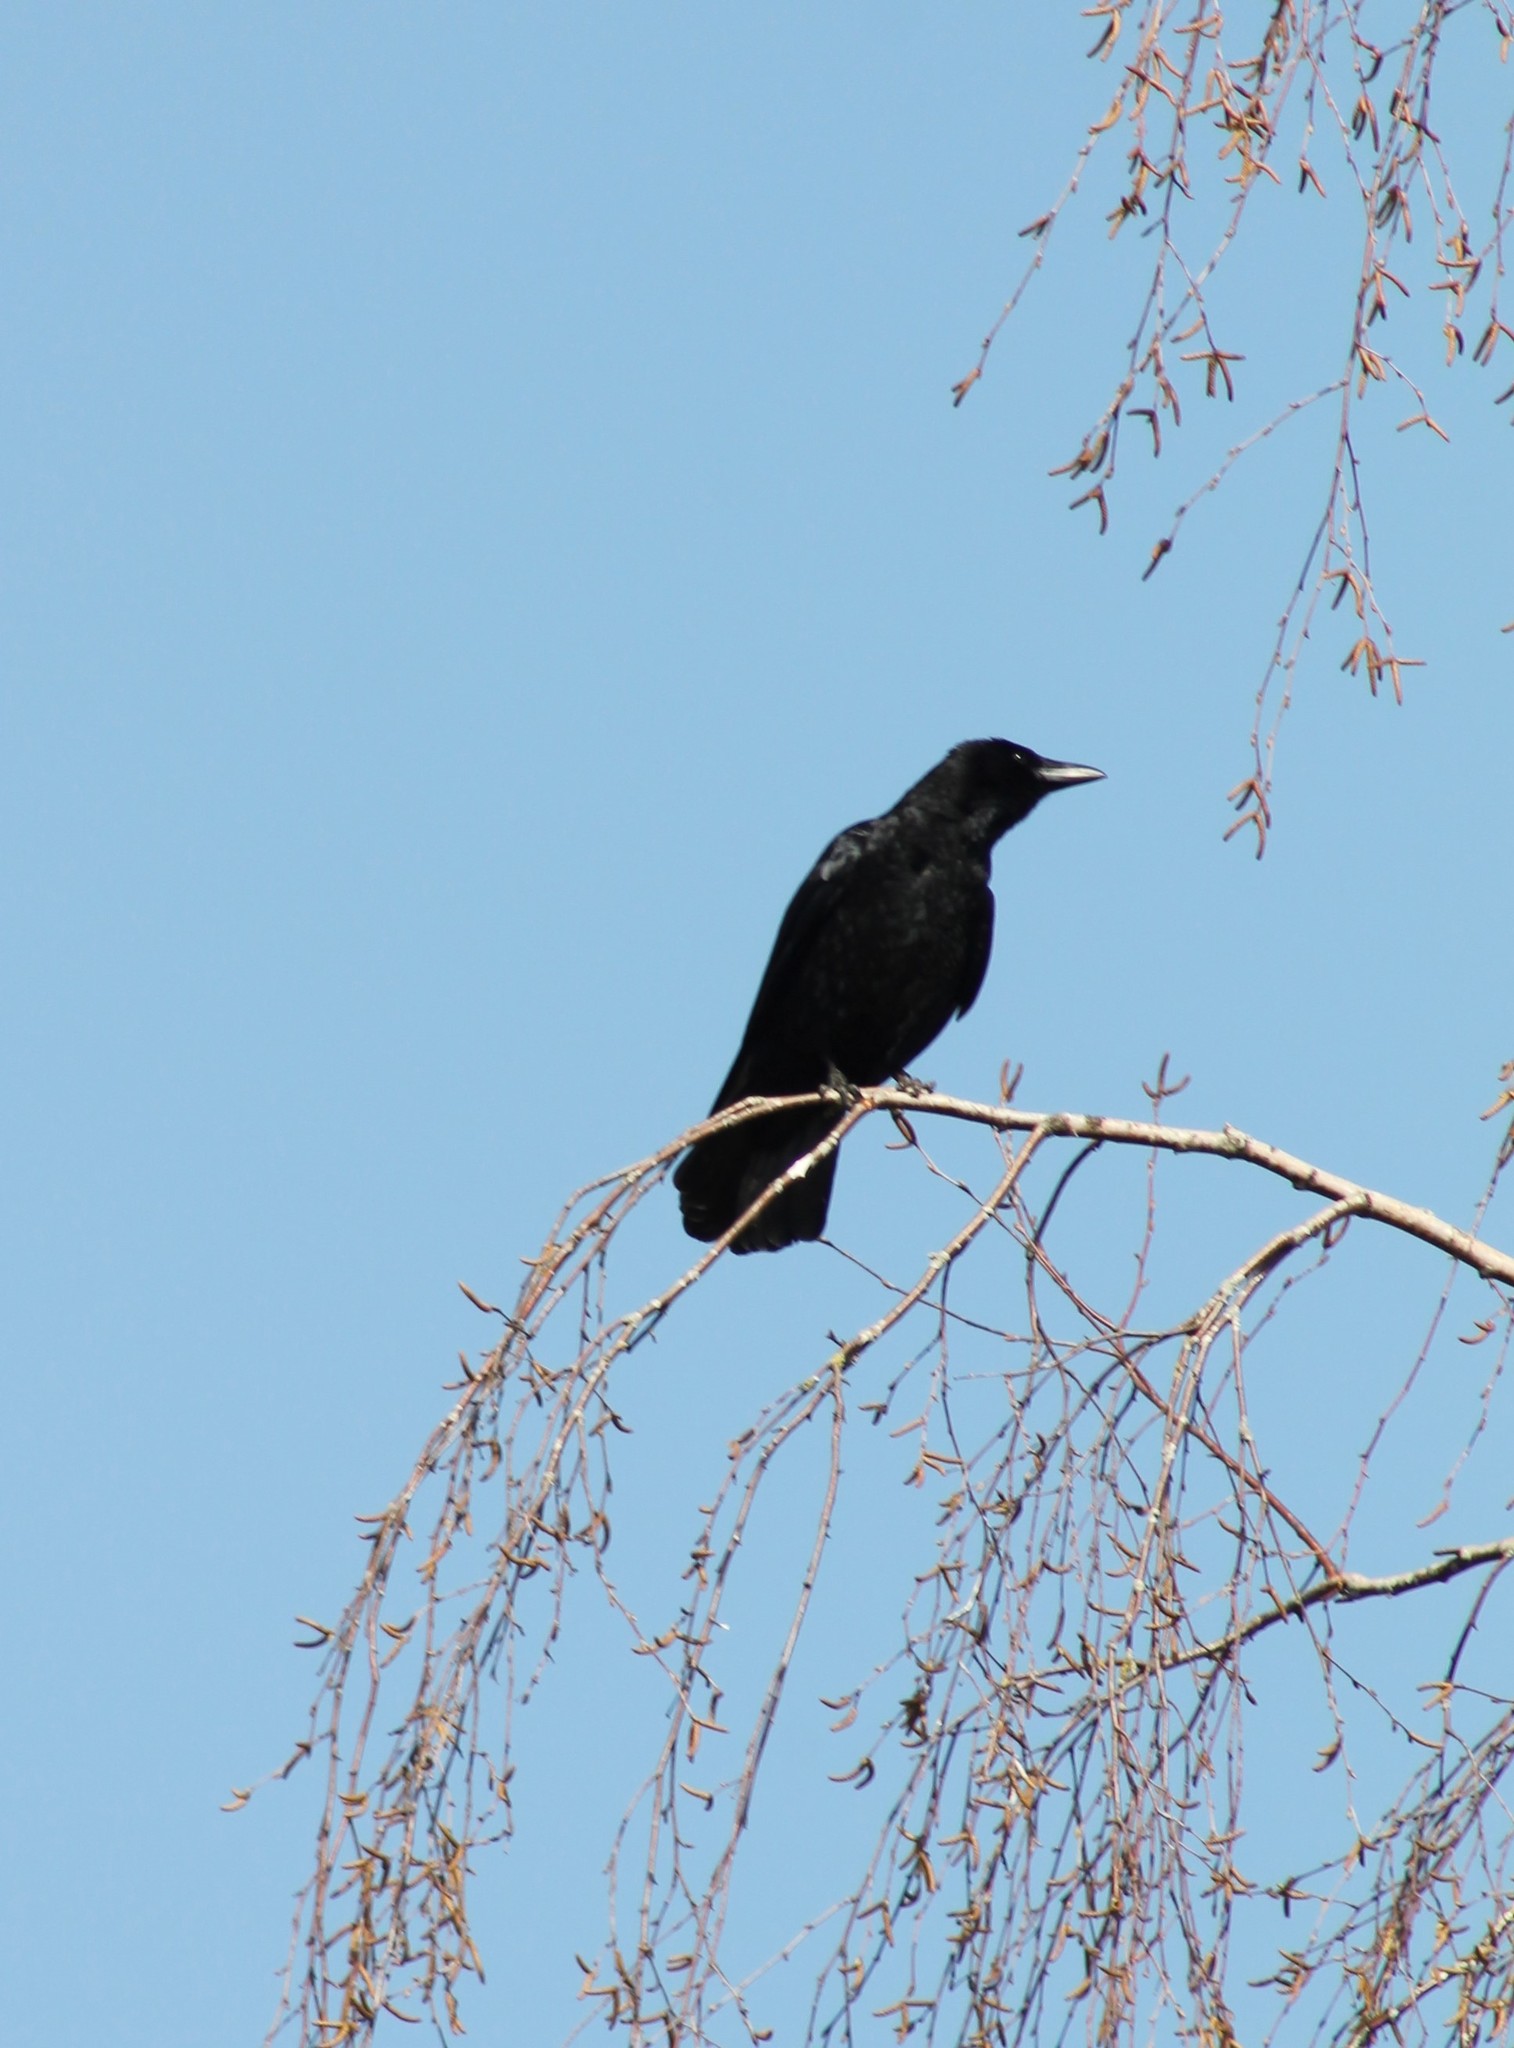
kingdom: Animalia
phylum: Chordata
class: Aves
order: Passeriformes
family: Corvidae
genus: Corvus
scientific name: Corvus corone
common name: Carrion crow
